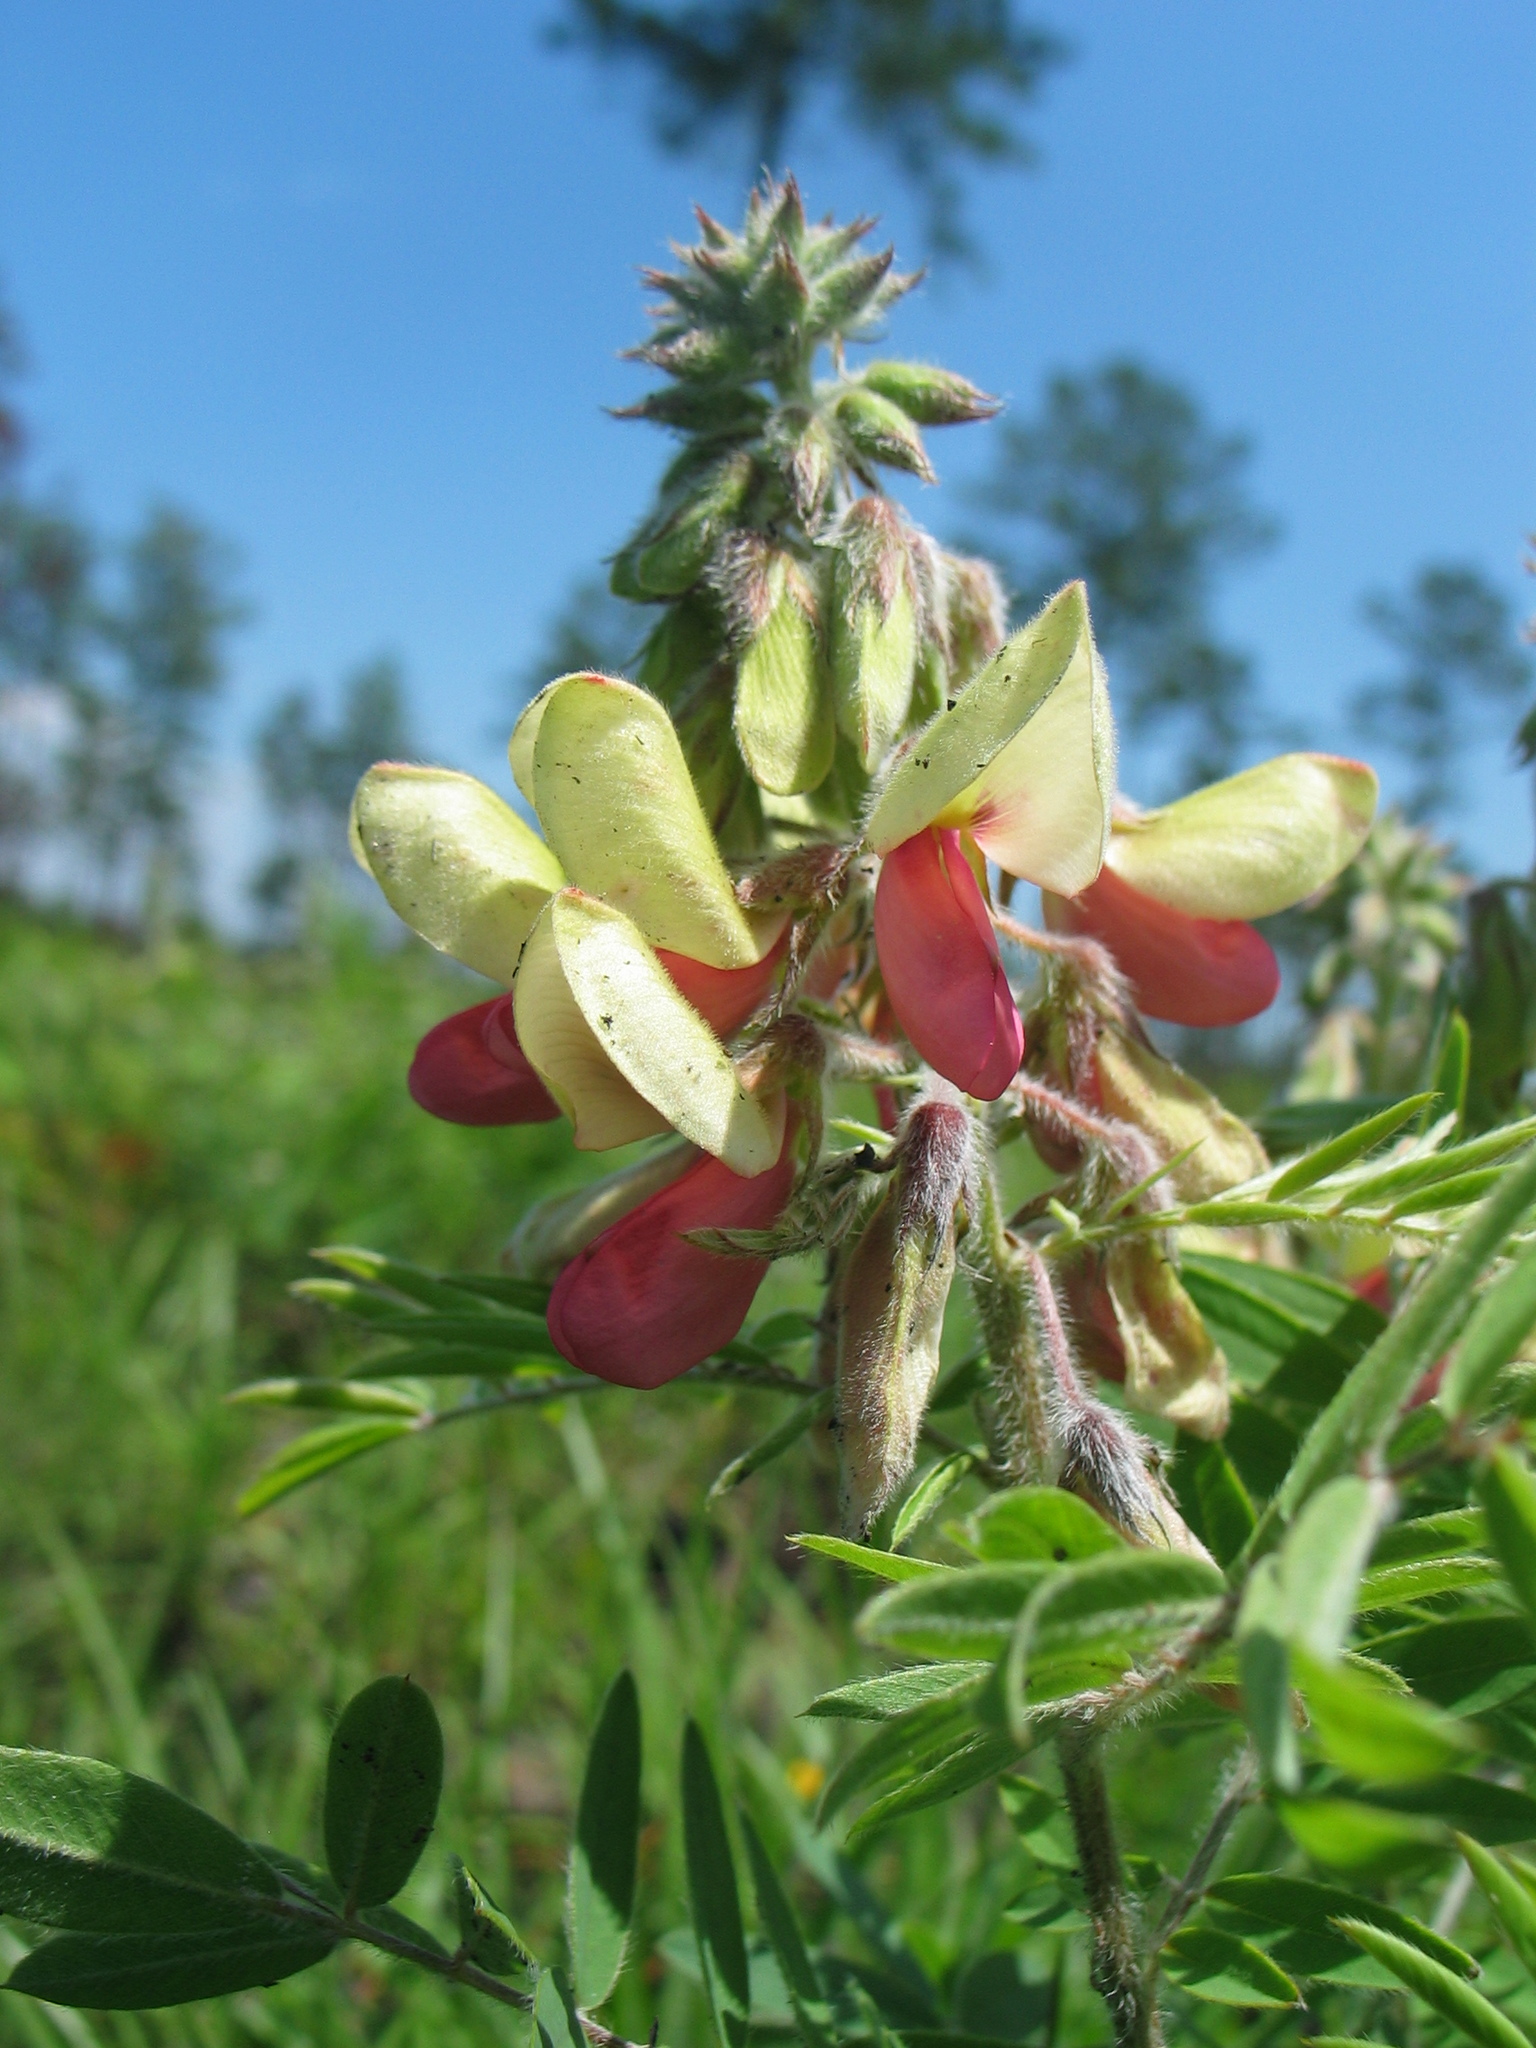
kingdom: Plantae
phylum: Tracheophyta
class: Magnoliopsida
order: Fabales
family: Fabaceae
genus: Tephrosia
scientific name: Tephrosia virginiana
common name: Rabbit-pea
